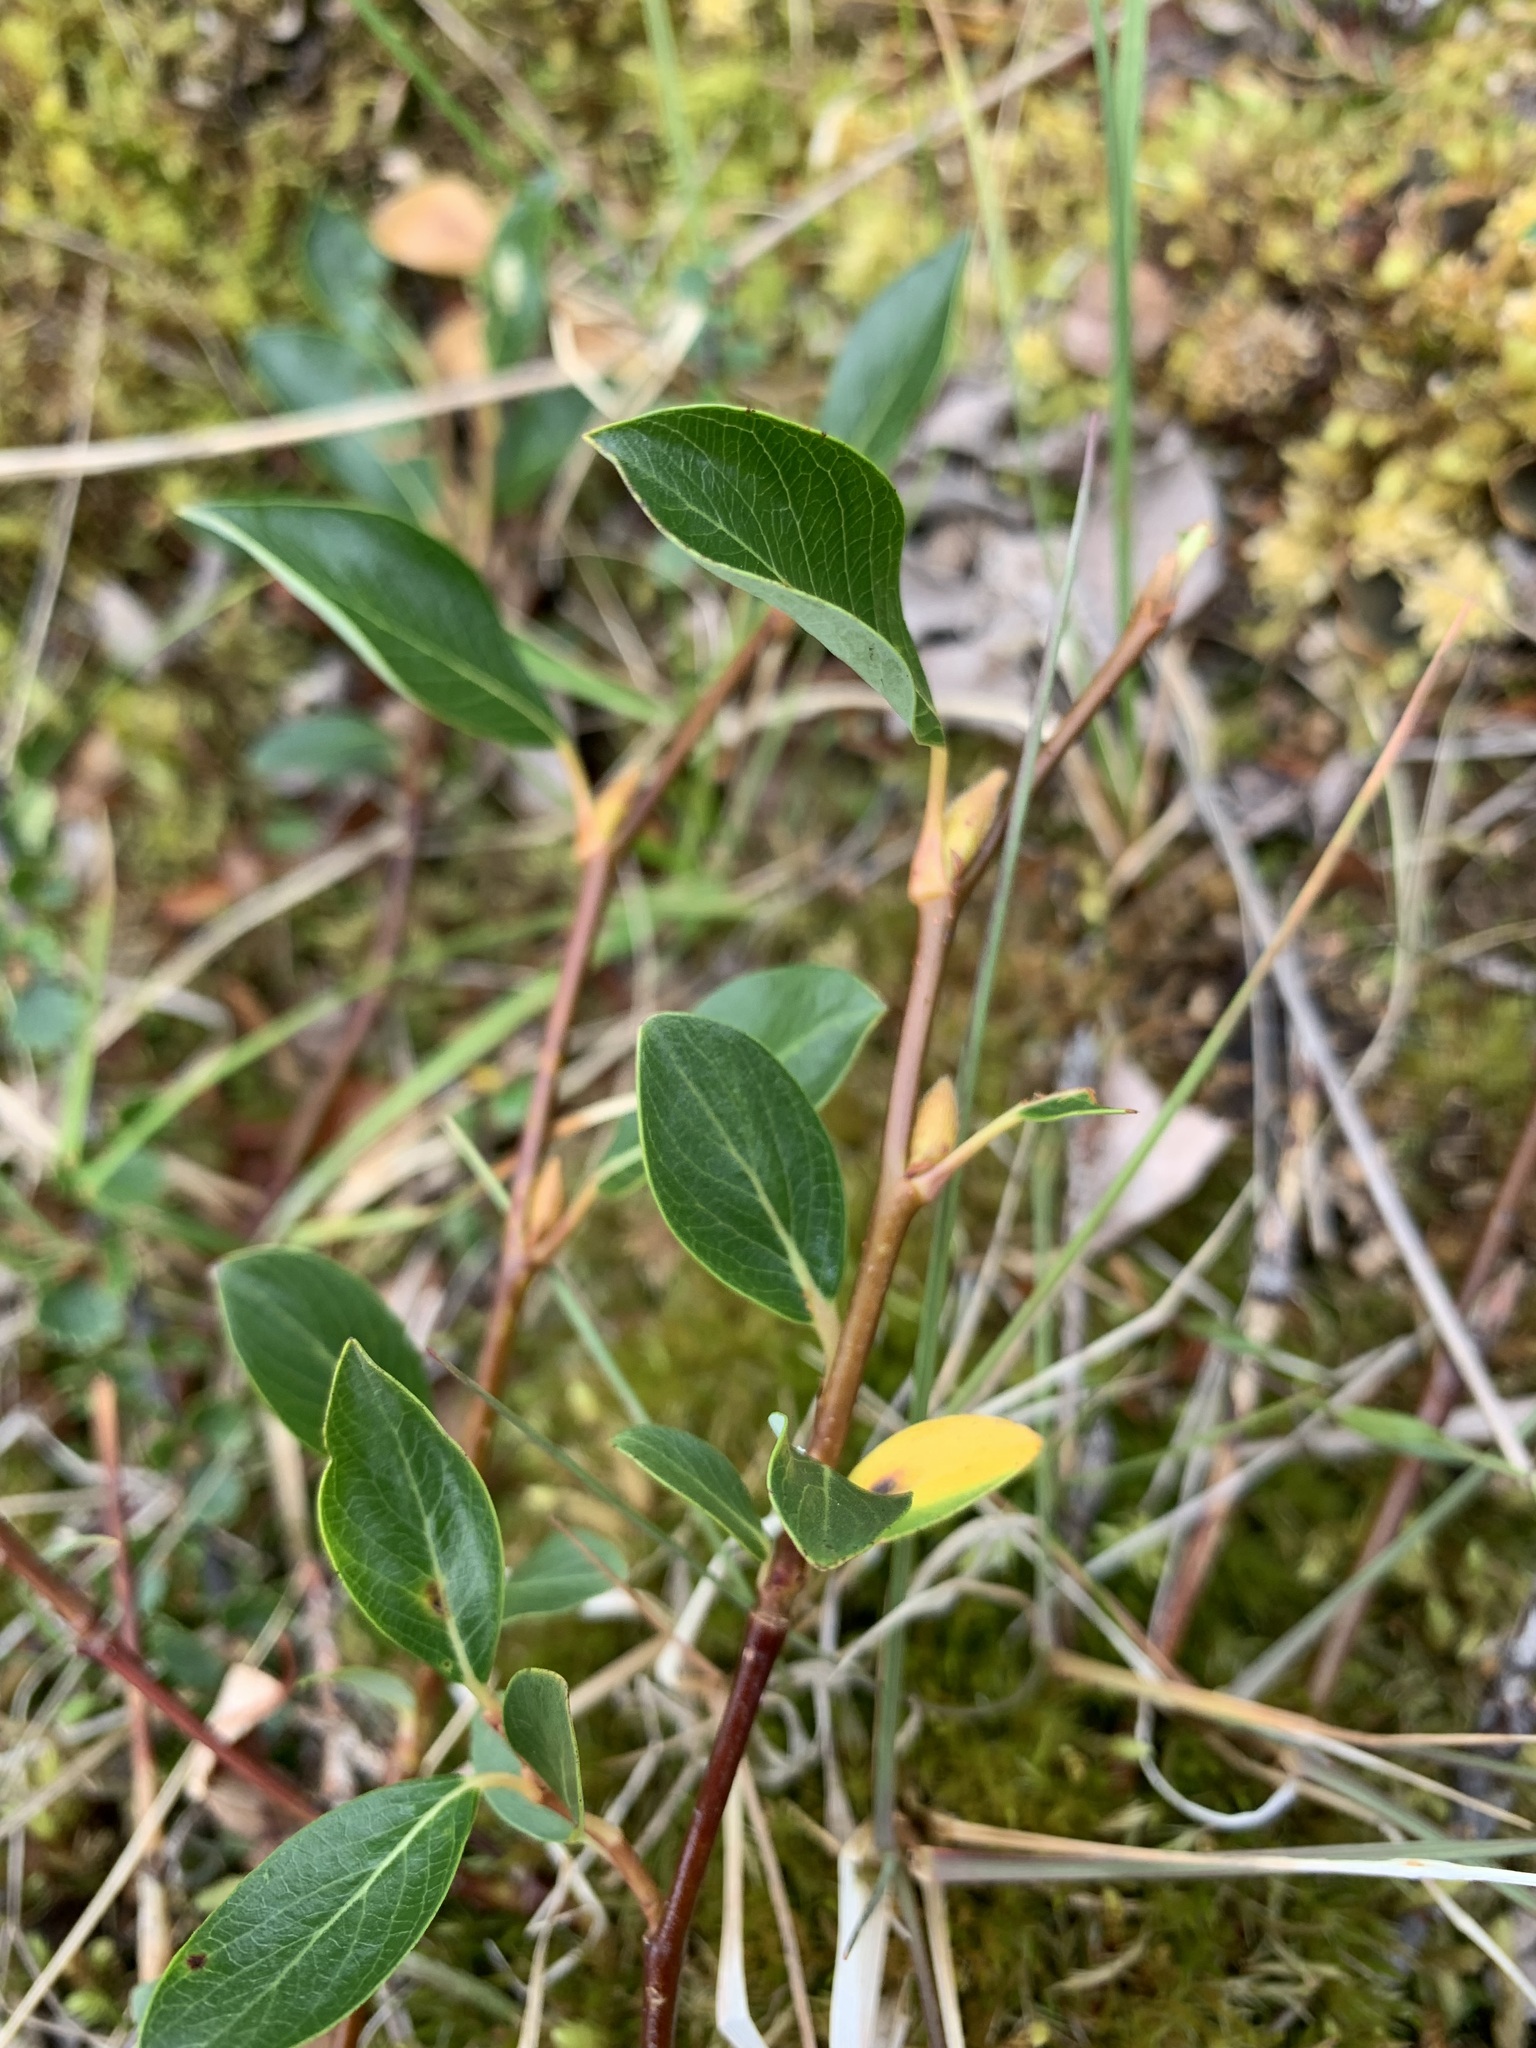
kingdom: Plantae
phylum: Tracheophyta
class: Magnoliopsida
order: Malpighiales
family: Salicaceae
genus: Salix
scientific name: Salix pulchra
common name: Diamond-leaved willow
